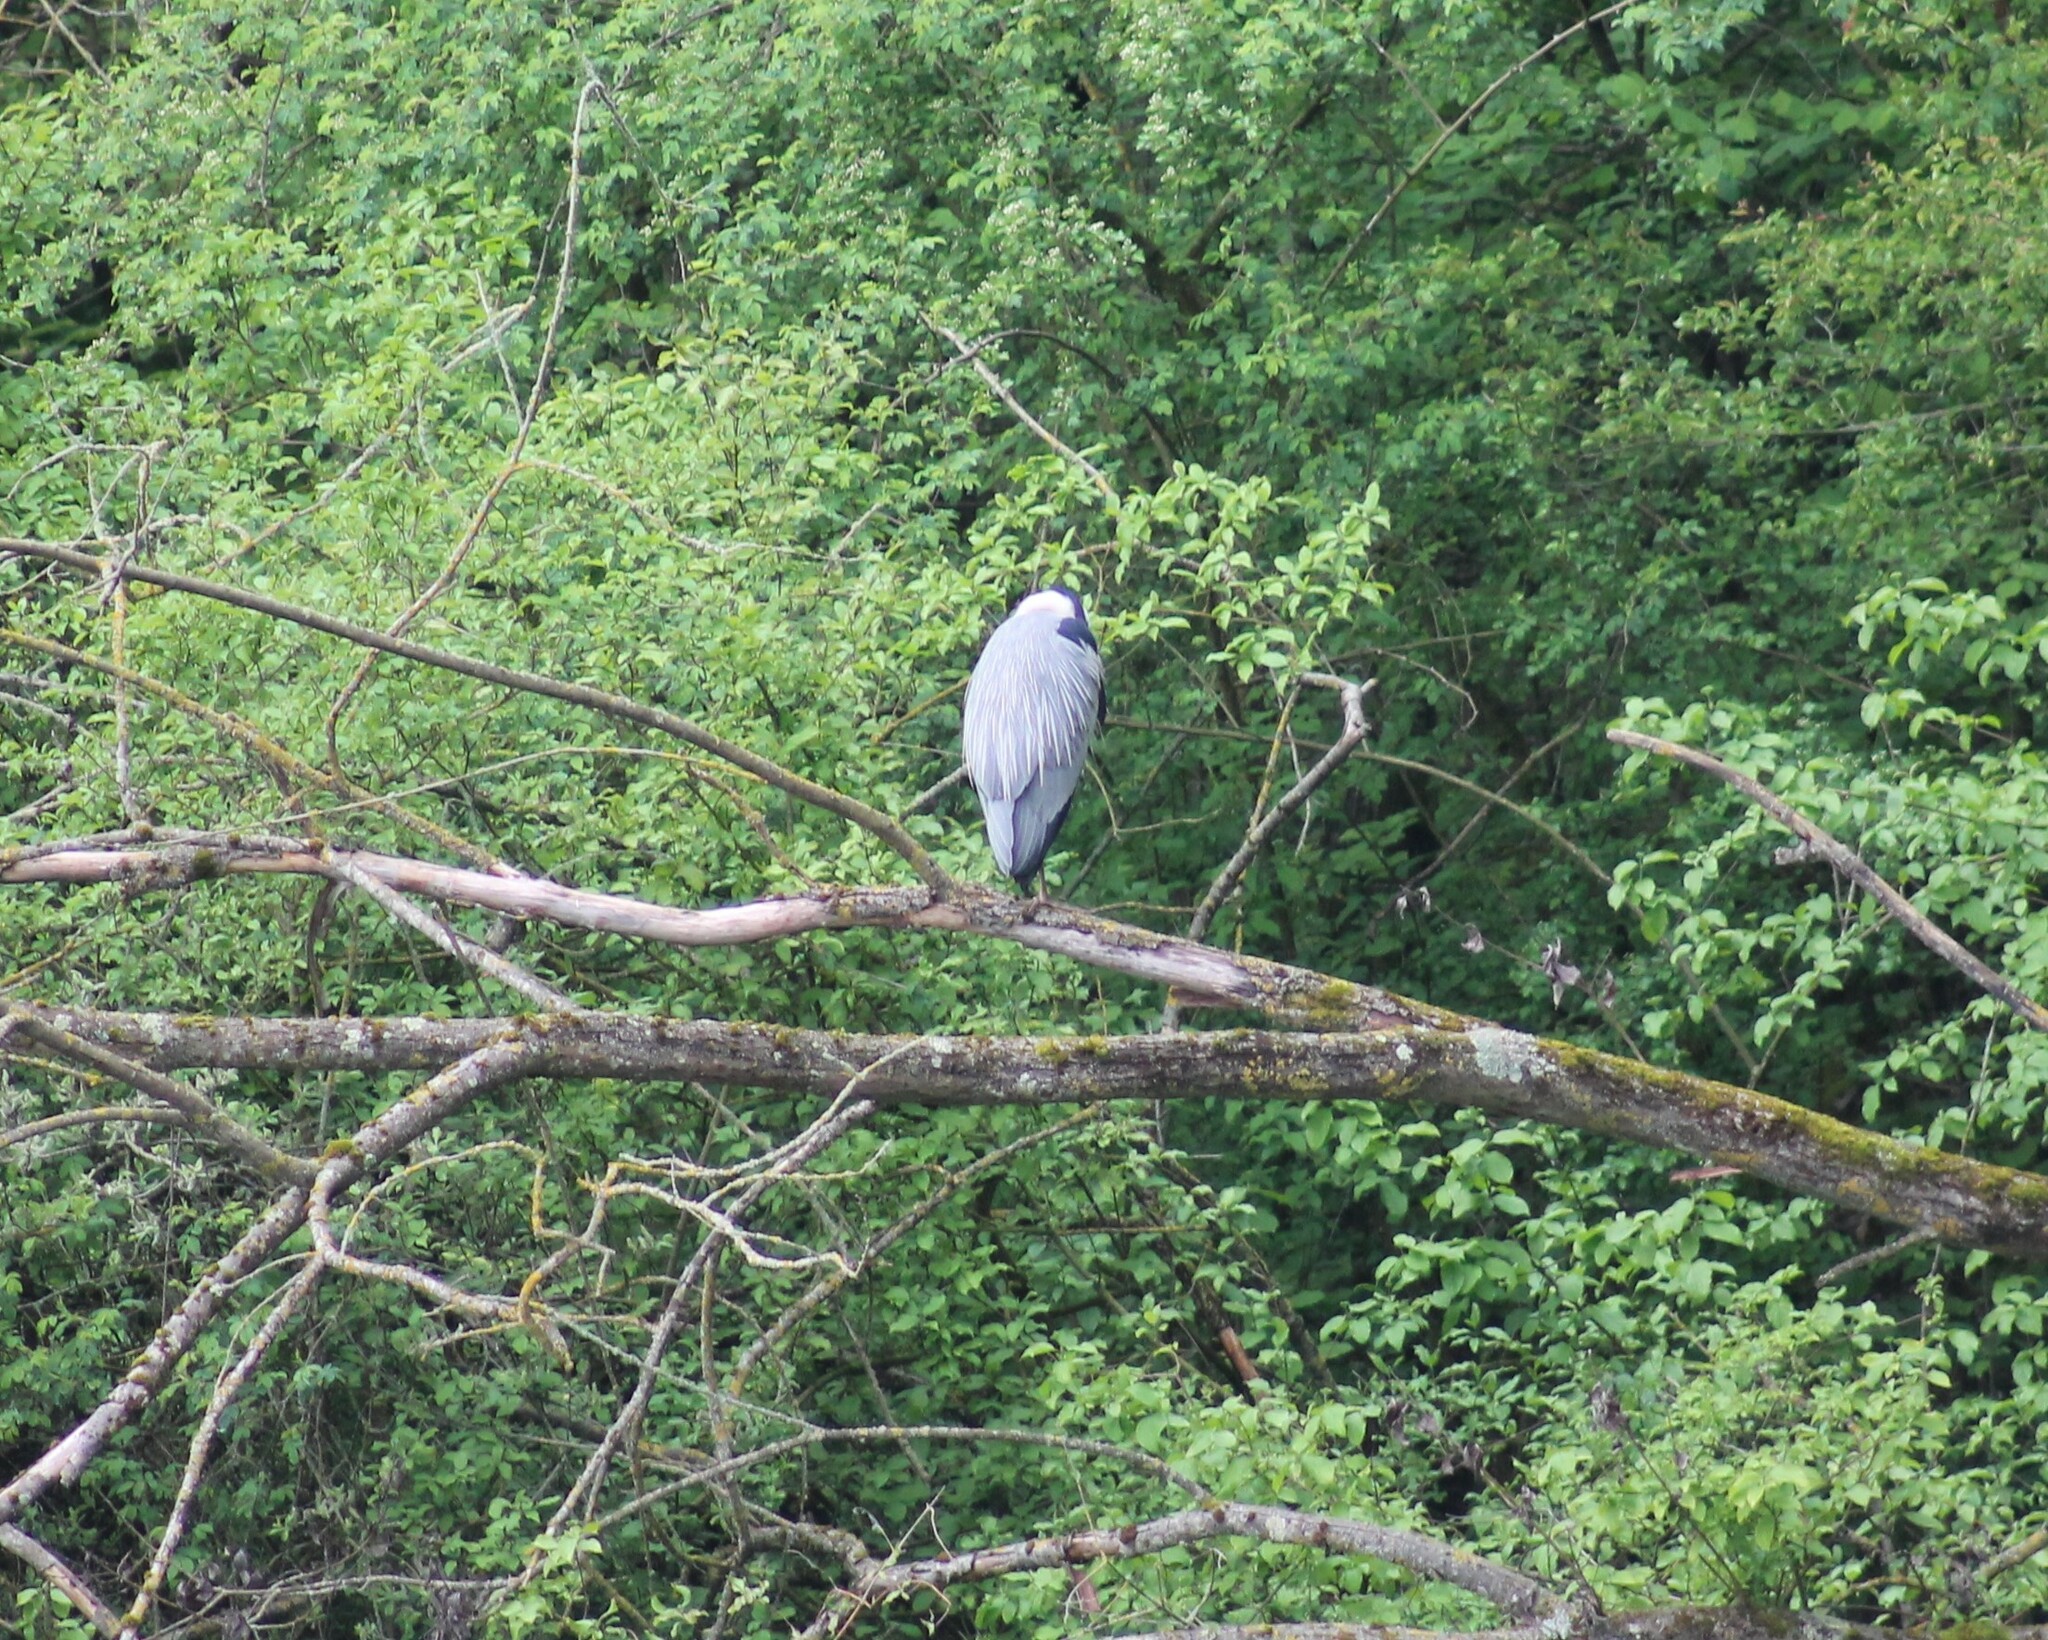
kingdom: Animalia
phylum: Chordata
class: Aves
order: Pelecaniformes
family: Ardeidae
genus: Ardea
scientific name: Ardea cinerea
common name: Grey heron
